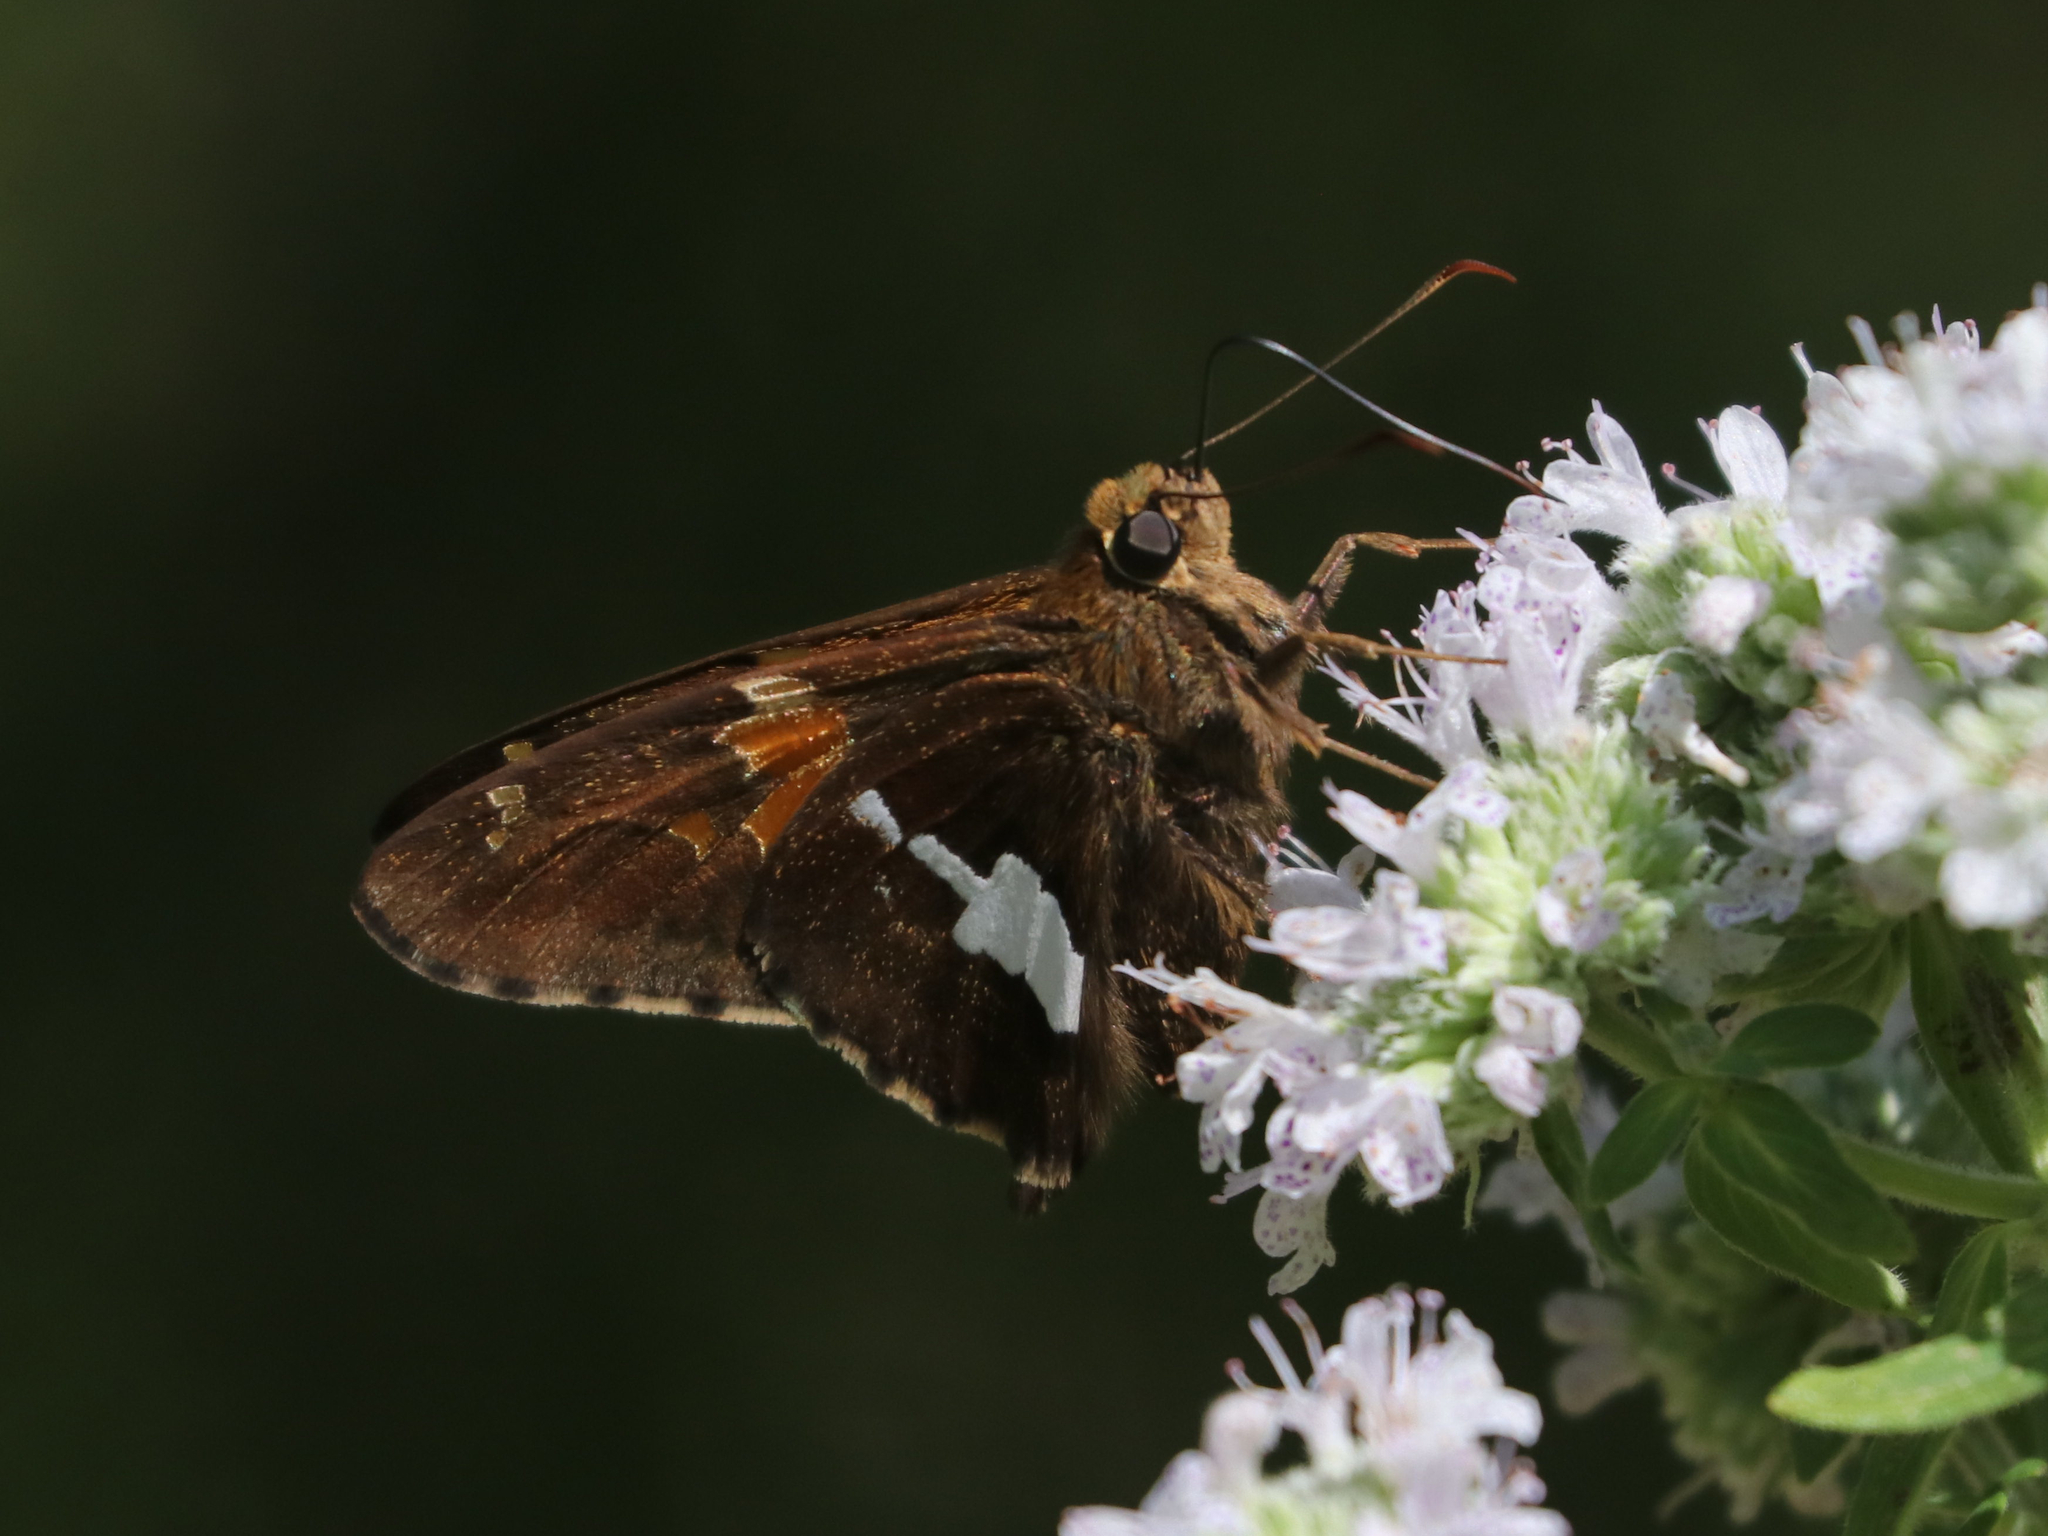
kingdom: Animalia
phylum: Arthropoda
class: Insecta
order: Lepidoptera
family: Hesperiidae
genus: Epargyreus
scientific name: Epargyreus clarus
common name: Silver-spotted skipper
